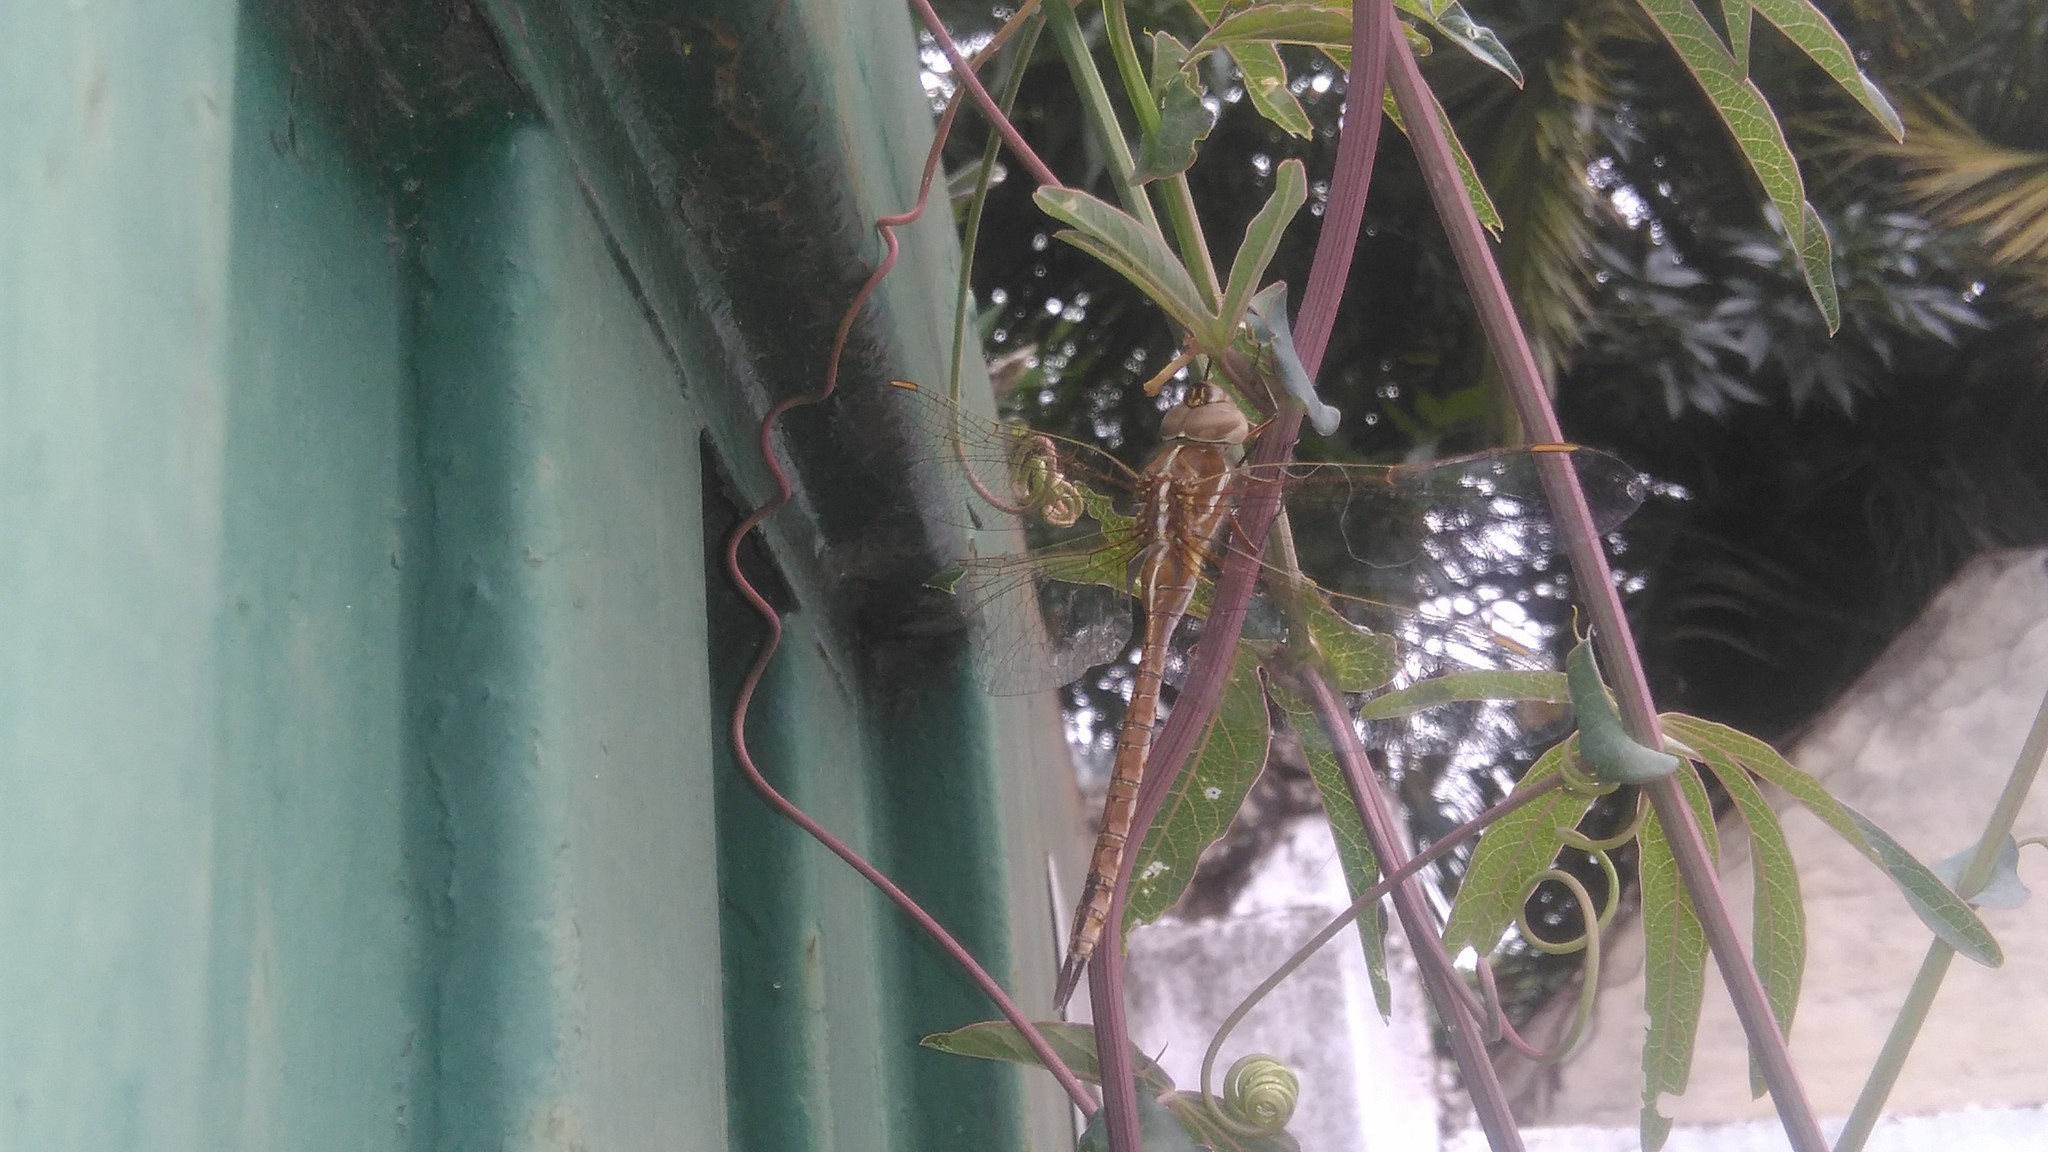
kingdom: Animalia
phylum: Arthropoda
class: Insecta
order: Odonata
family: Aeshnidae
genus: Rhionaeschna
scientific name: Rhionaeschna bonariensis
